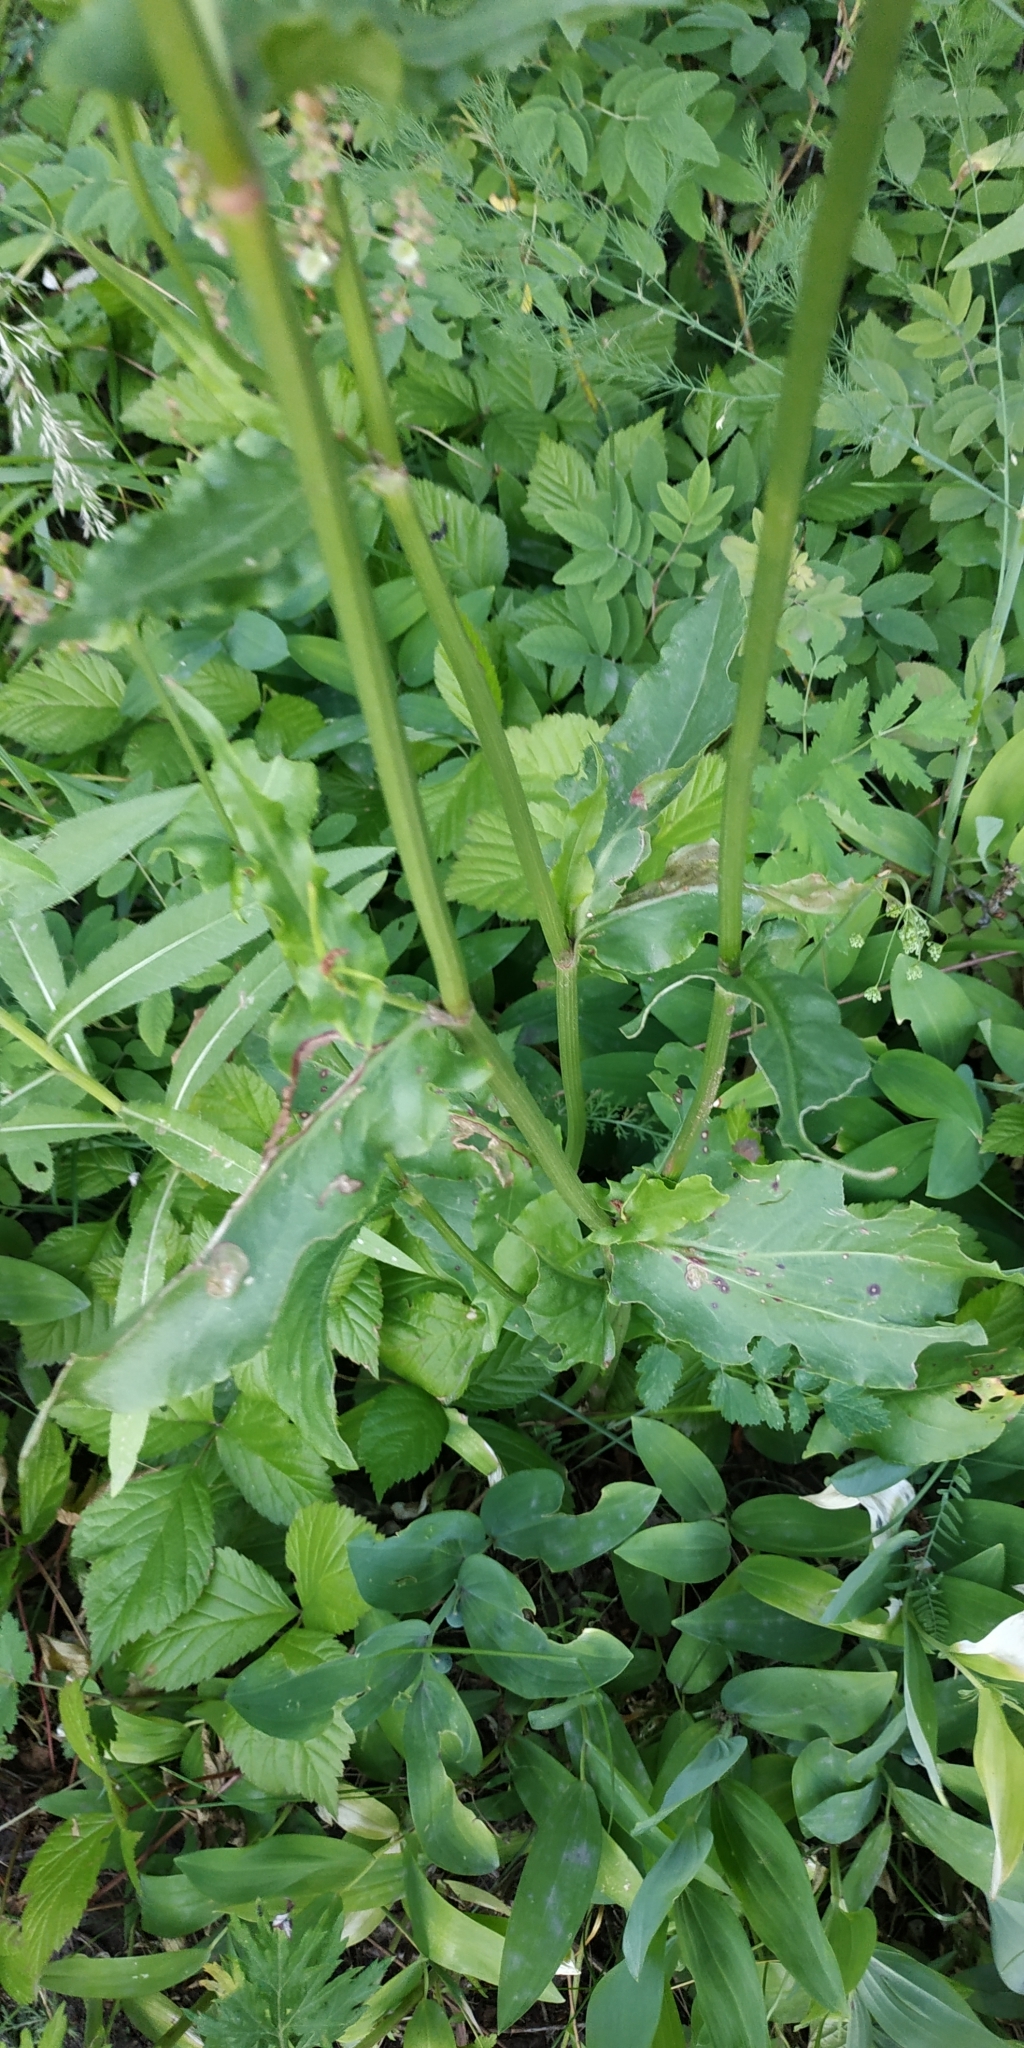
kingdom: Plantae
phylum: Tracheophyta
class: Magnoliopsida
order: Caryophyllales
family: Polygonaceae
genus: Rumex
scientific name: Rumex thyrsiflorus
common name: Garden sorrel
